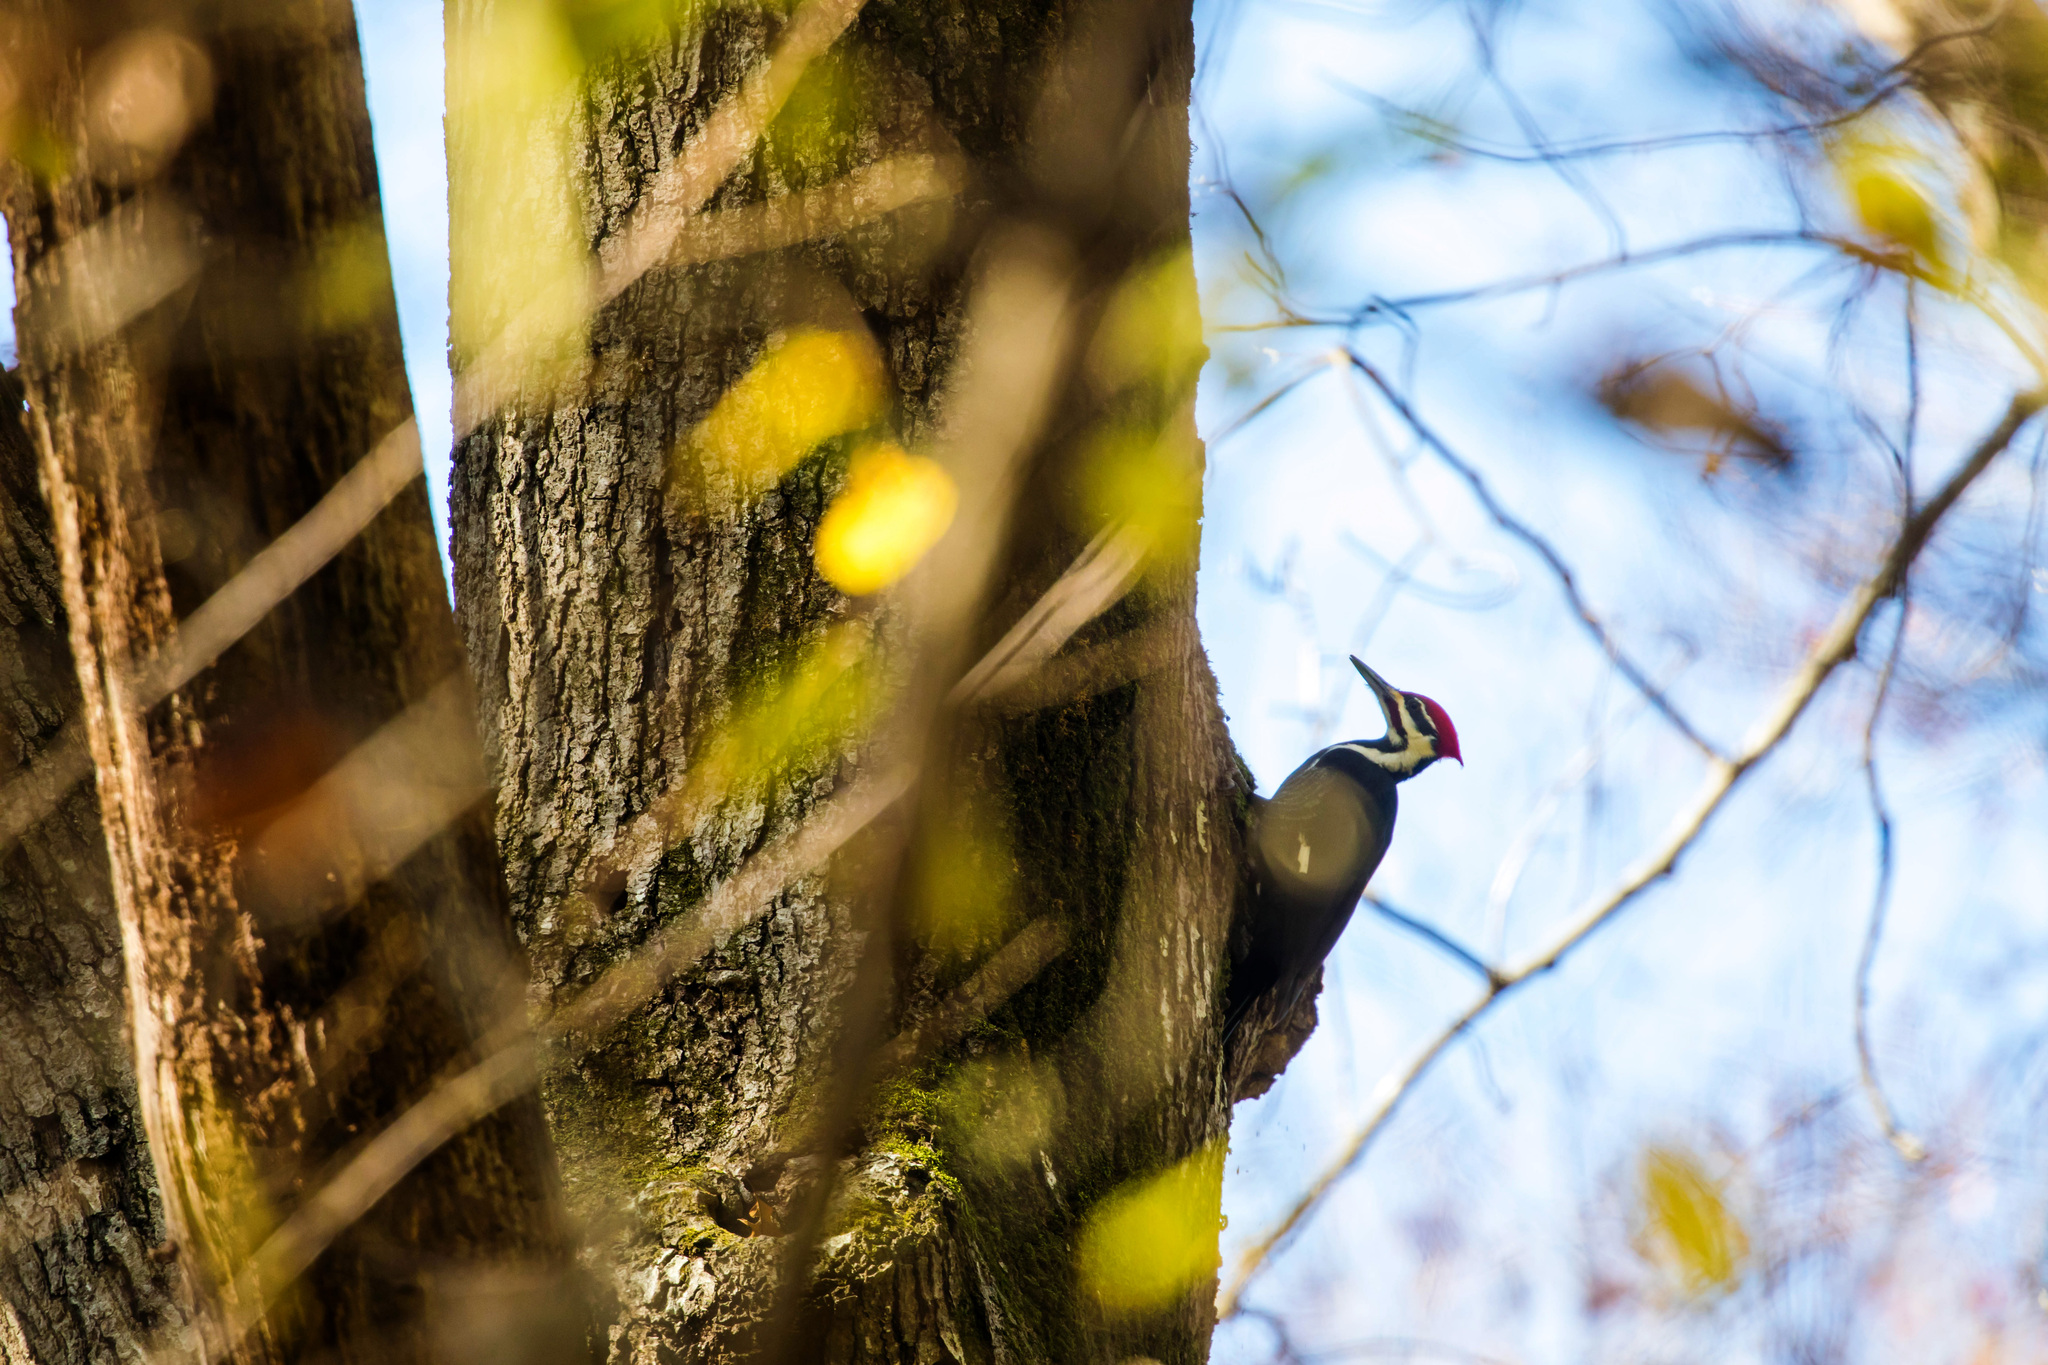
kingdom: Animalia
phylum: Chordata
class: Aves
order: Piciformes
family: Picidae
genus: Dryocopus
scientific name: Dryocopus pileatus
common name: Pileated woodpecker
